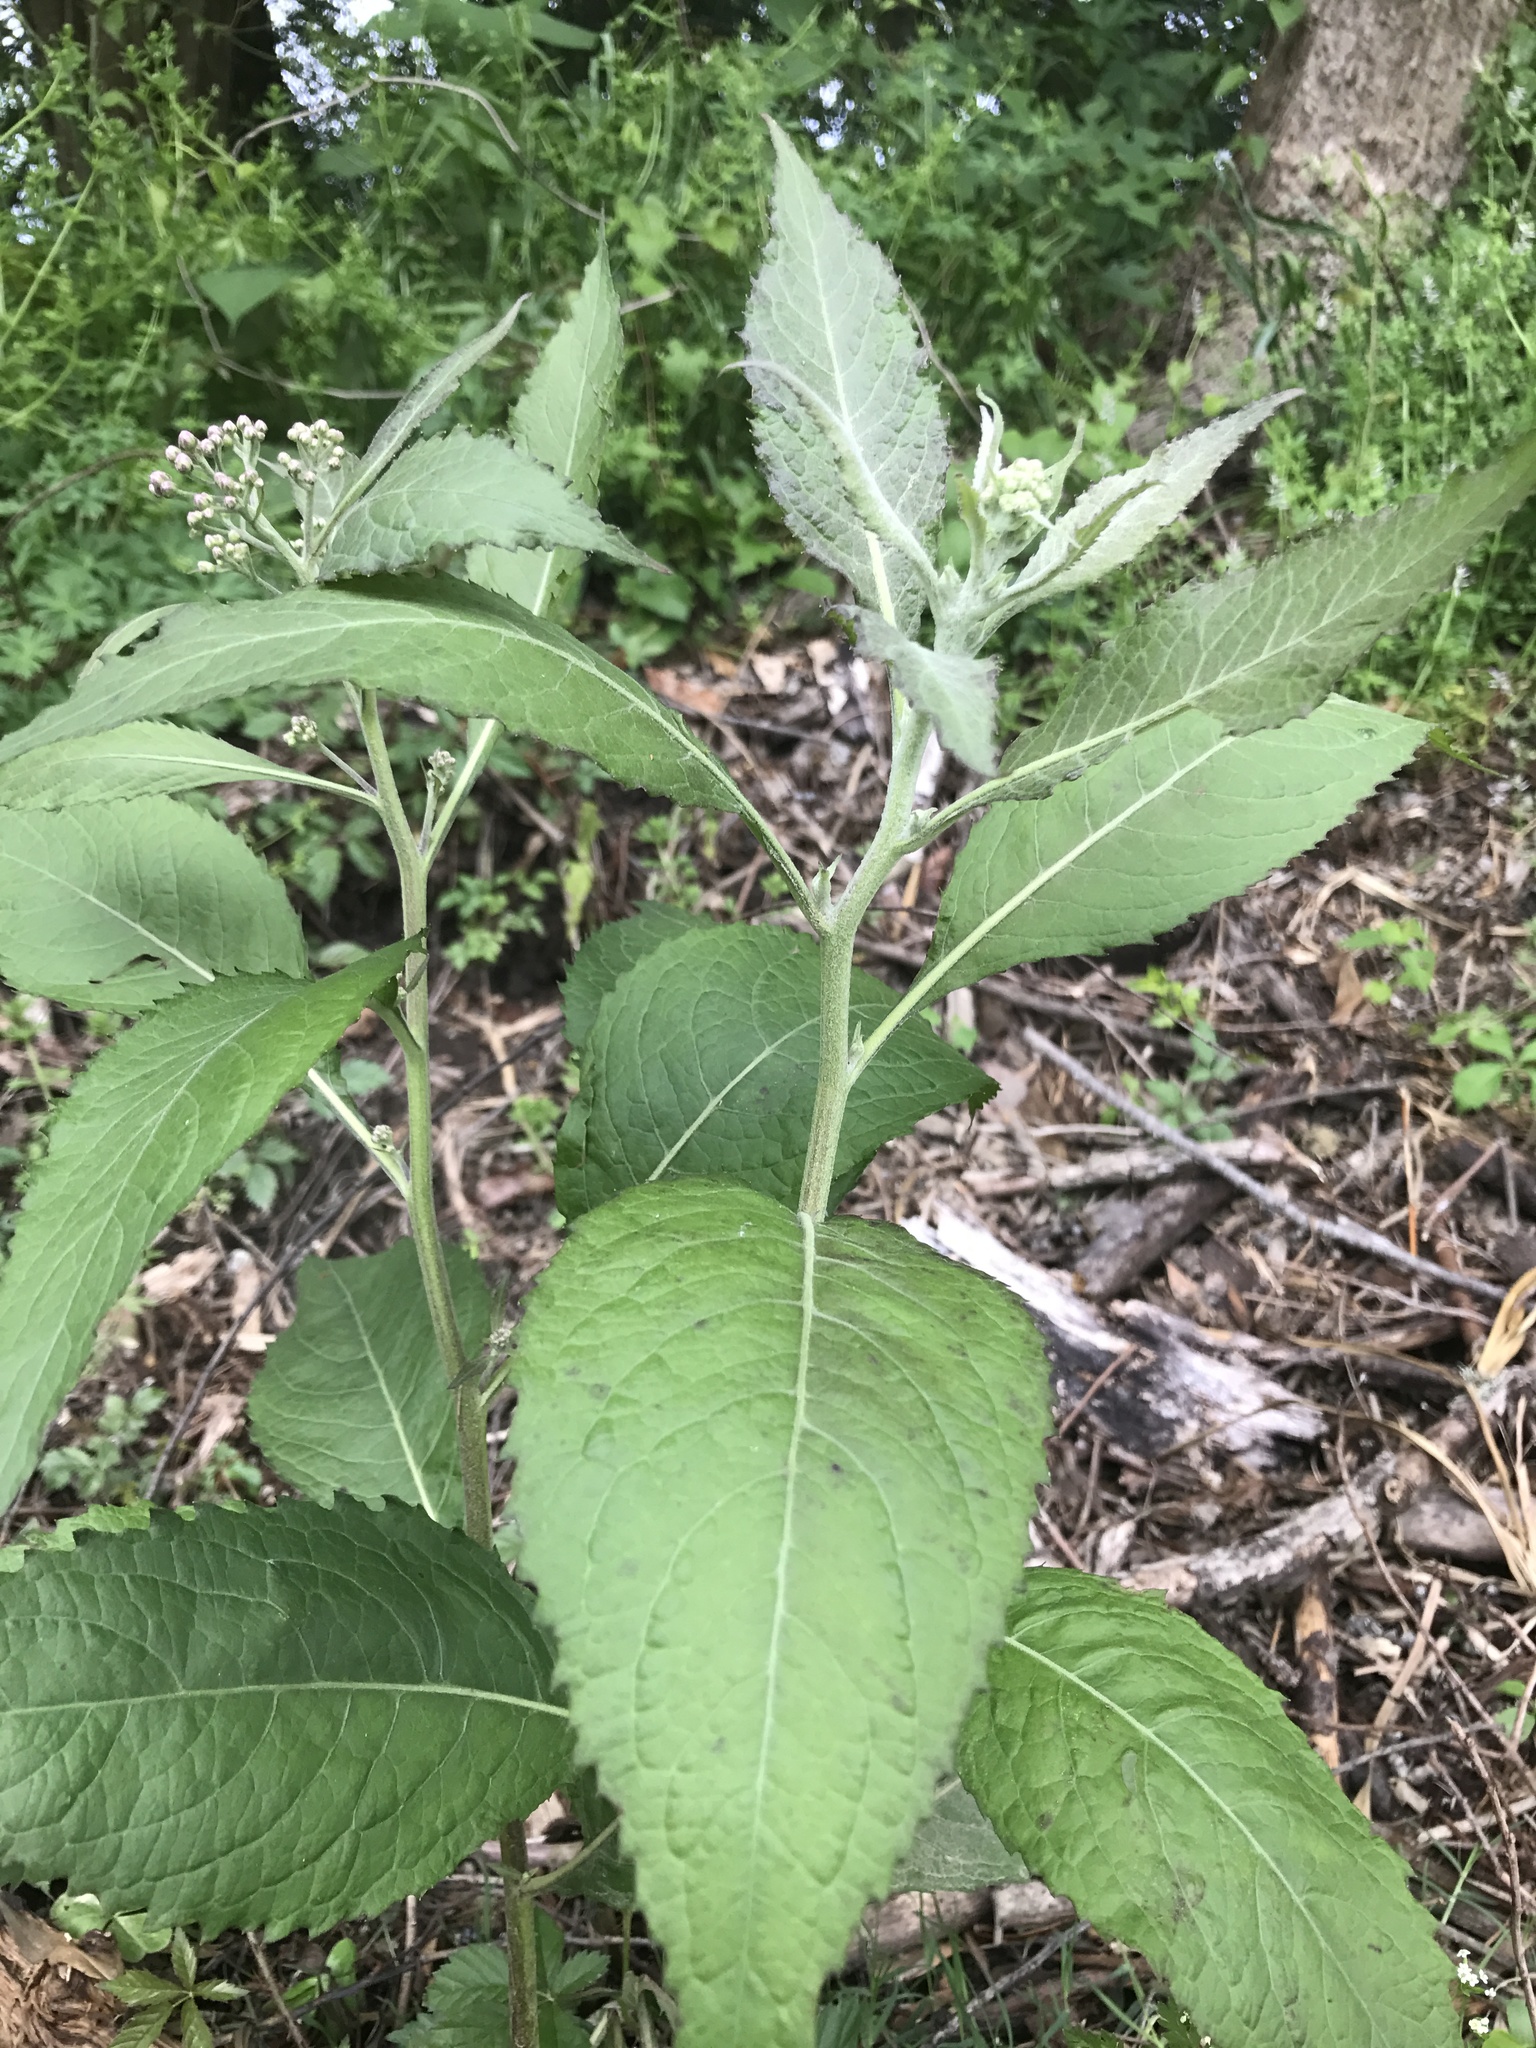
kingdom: Plantae
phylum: Tracheophyta
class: Magnoliopsida
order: Asterales
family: Asteraceae
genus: Pluchea
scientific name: Pluchea camphorata
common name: Camphor pluchea
